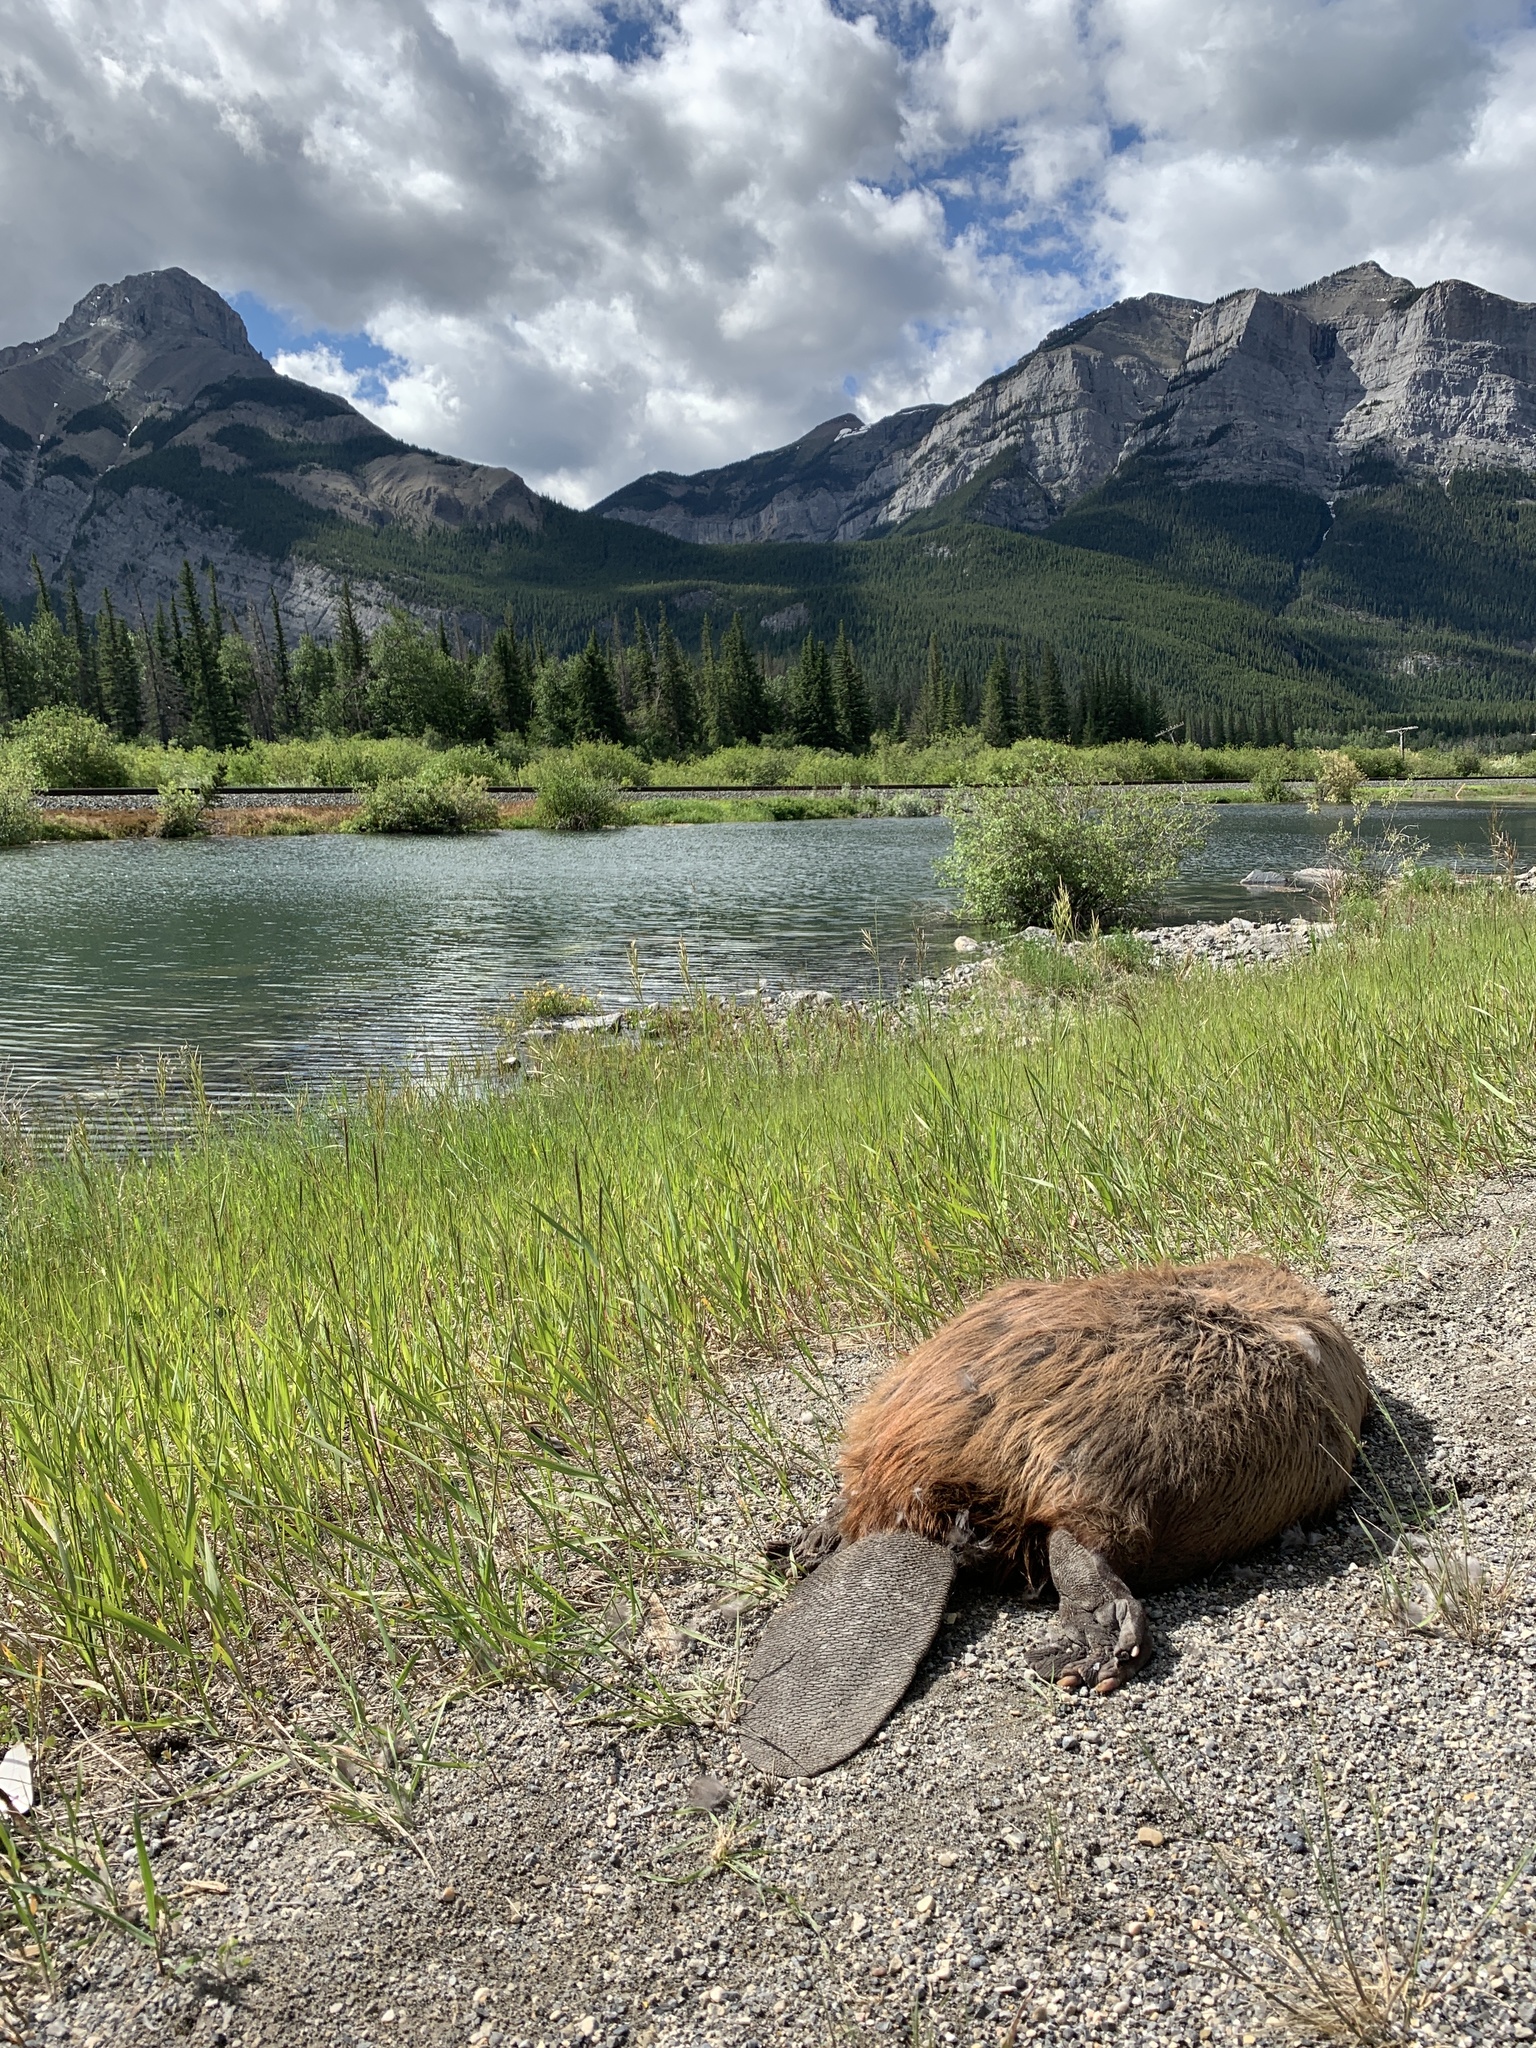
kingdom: Animalia
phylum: Chordata
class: Mammalia
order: Rodentia
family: Castoridae
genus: Castor
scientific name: Castor canadensis
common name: American beaver
